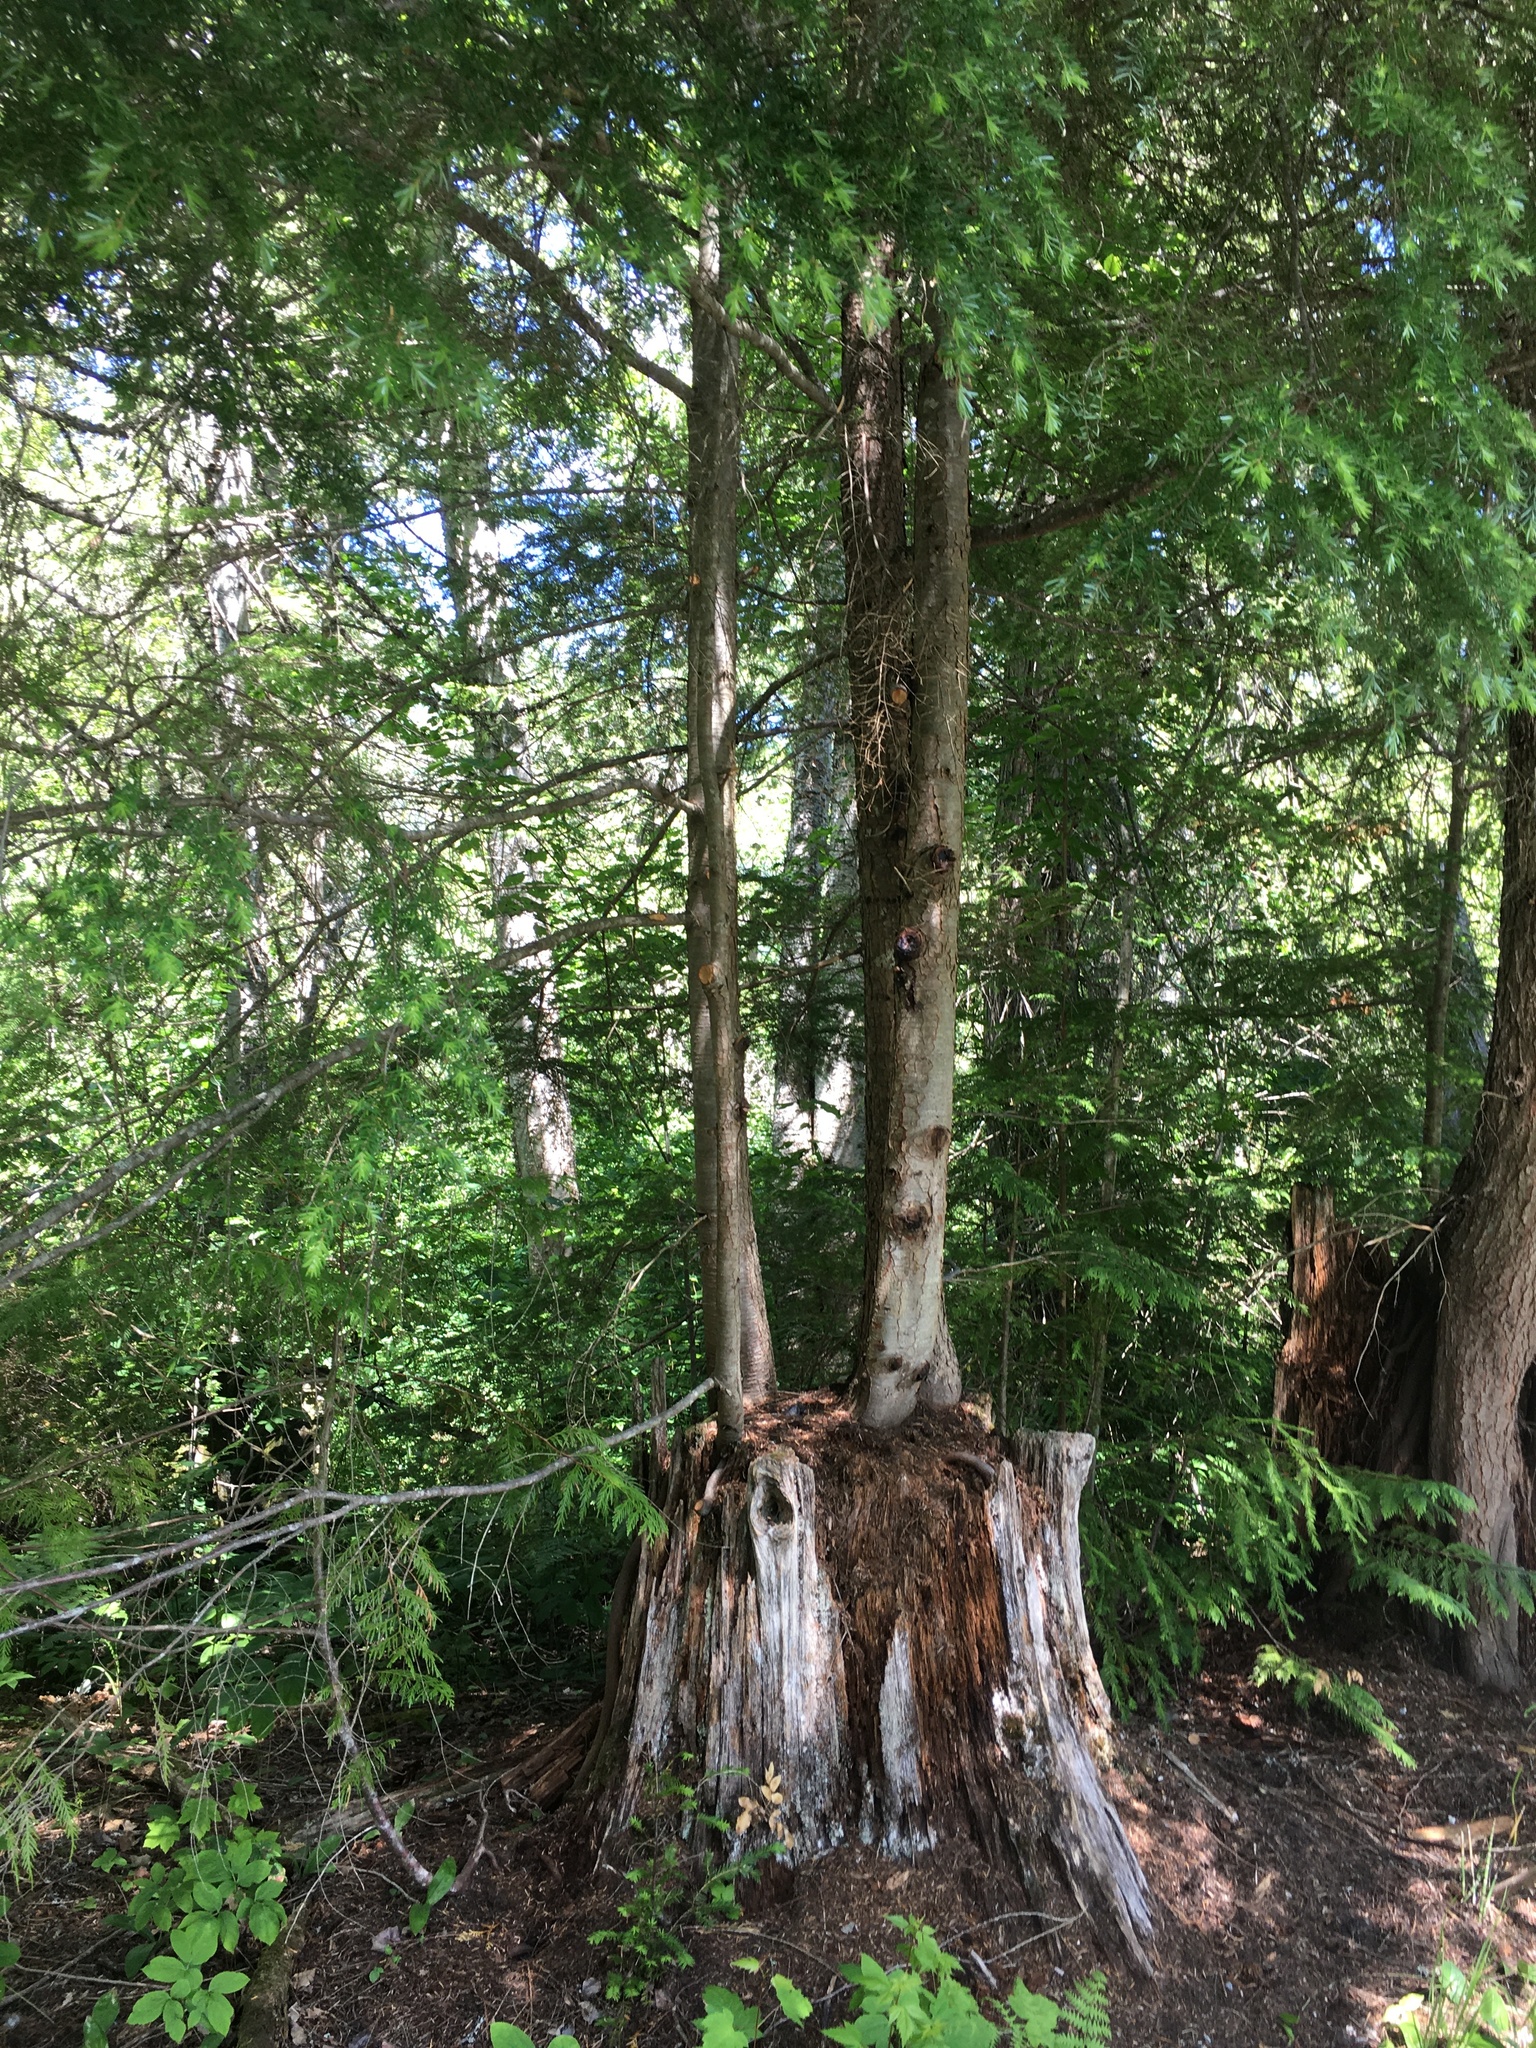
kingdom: Plantae
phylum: Tracheophyta
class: Pinopsida
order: Pinales
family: Pinaceae
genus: Tsuga
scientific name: Tsuga heterophylla
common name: Western hemlock
